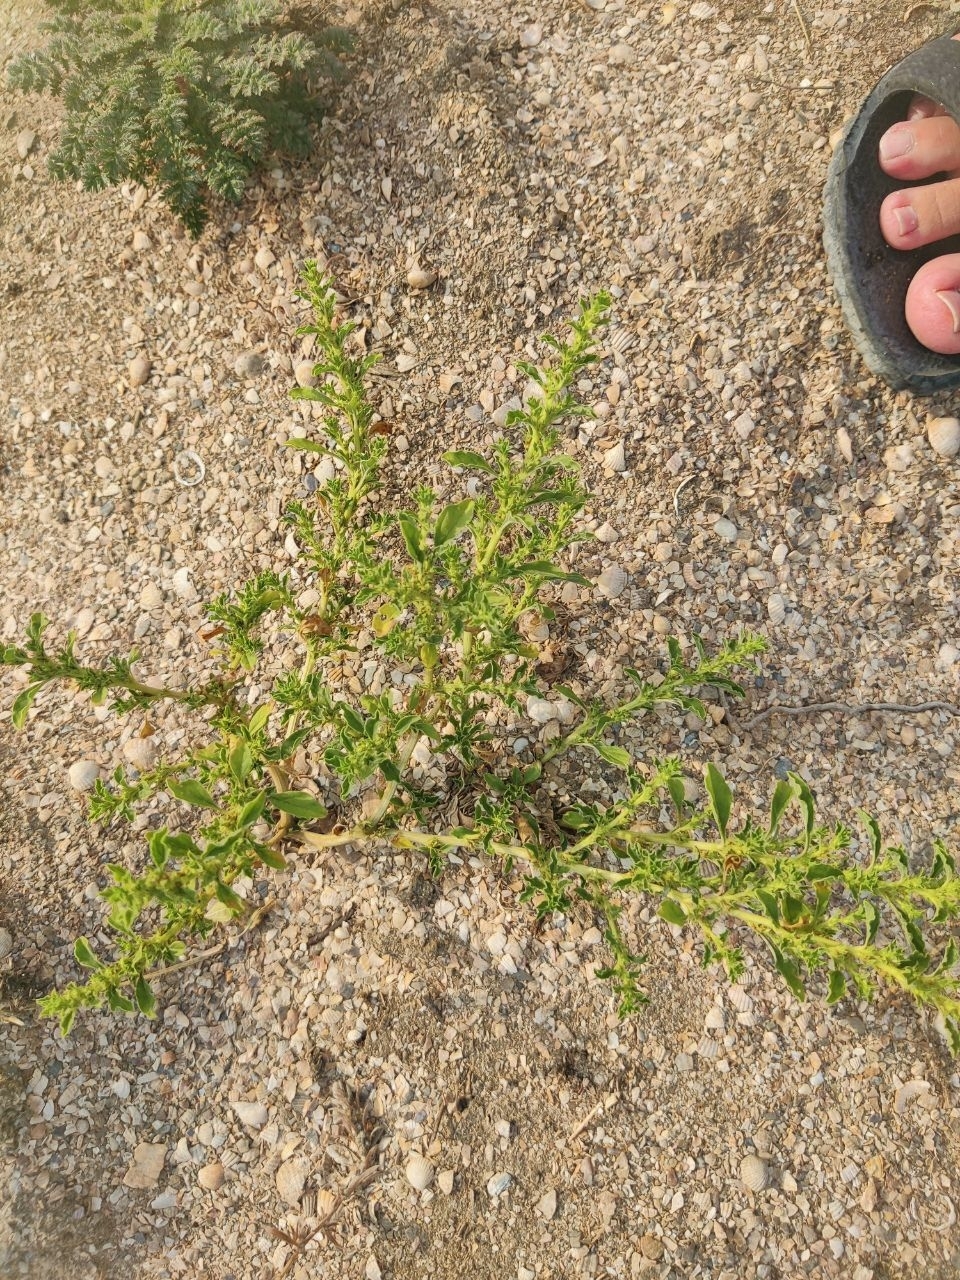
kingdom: Plantae
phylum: Tracheophyta
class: Magnoliopsida
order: Caryophyllales
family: Amaranthaceae
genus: Amaranthus
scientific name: Amaranthus albus
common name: White pigweed
